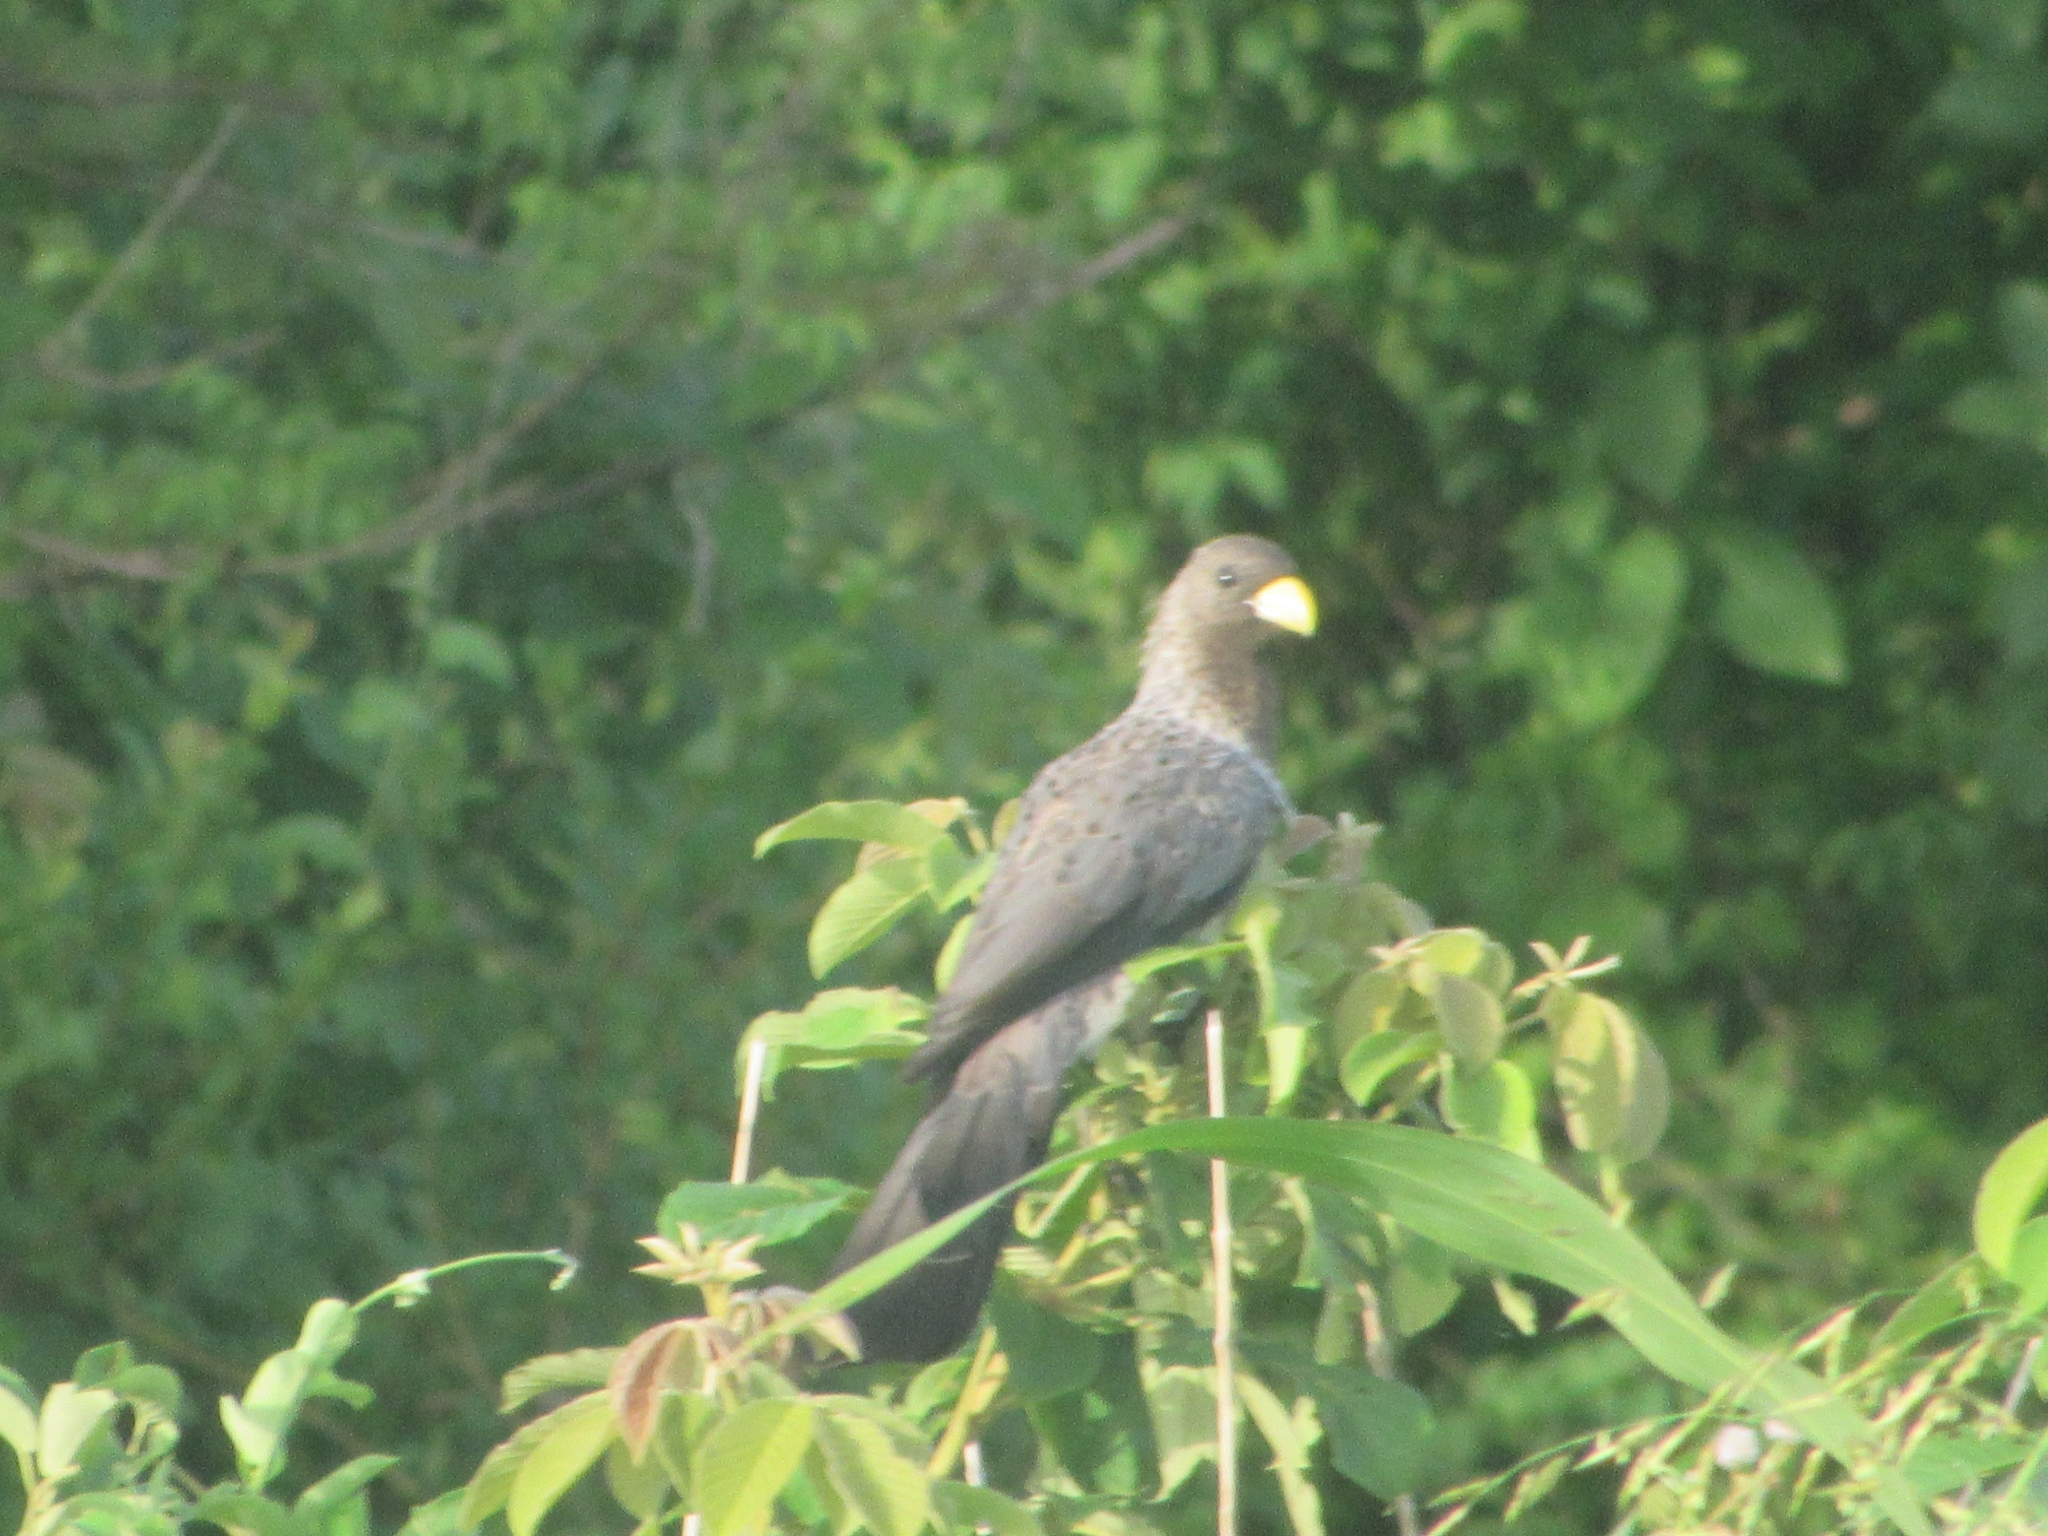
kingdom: Animalia
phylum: Chordata
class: Aves
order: Musophagiformes
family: Musophagidae
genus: Crinifer
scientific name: Crinifer piscator
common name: Western plantain-eater
